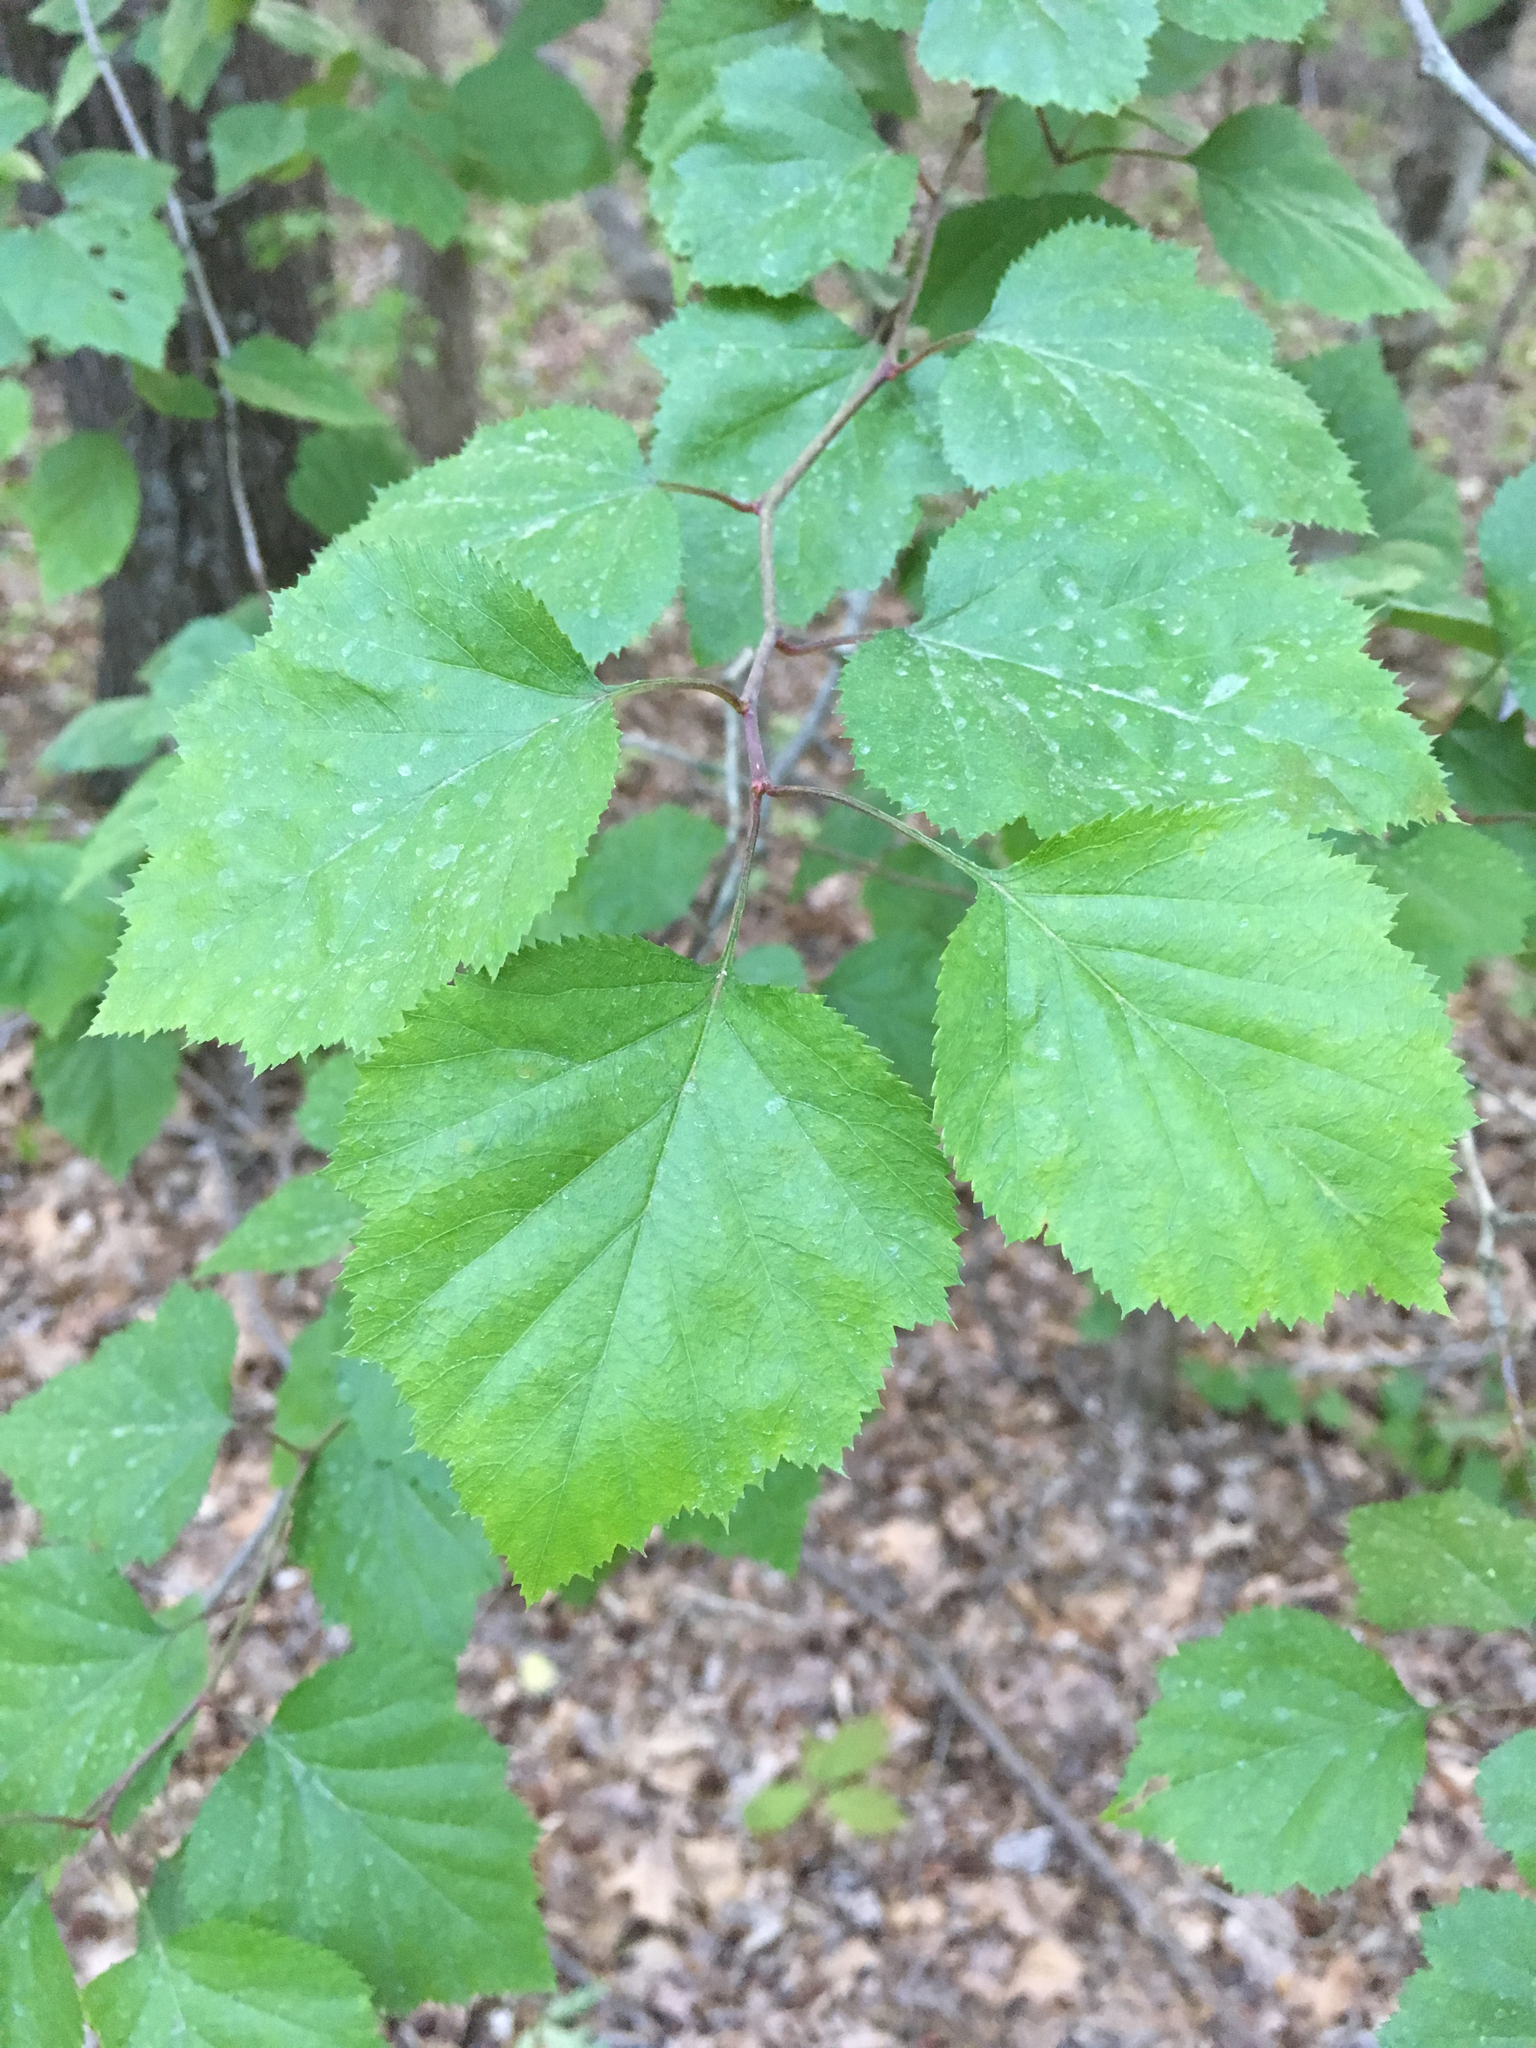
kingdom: Plantae
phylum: Tracheophyta
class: Magnoliopsida
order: Rosales
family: Rosaceae
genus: Crataegus
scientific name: Crataegus pruinosa
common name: Waxy-fruit hawthorn
